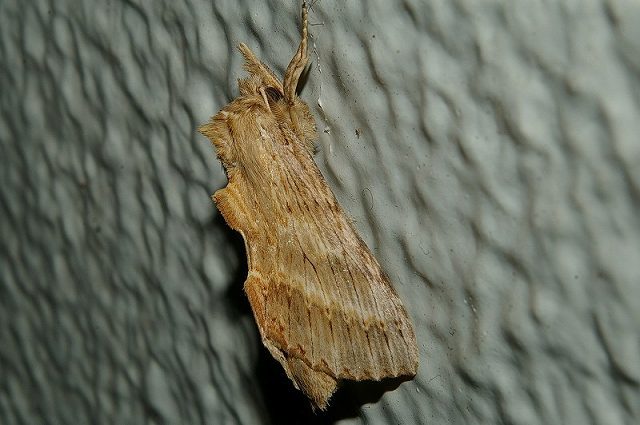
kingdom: Animalia
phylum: Arthropoda
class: Insecta
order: Lepidoptera
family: Notodontidae
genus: Pterostoma
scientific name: Pterostoma gigantina
